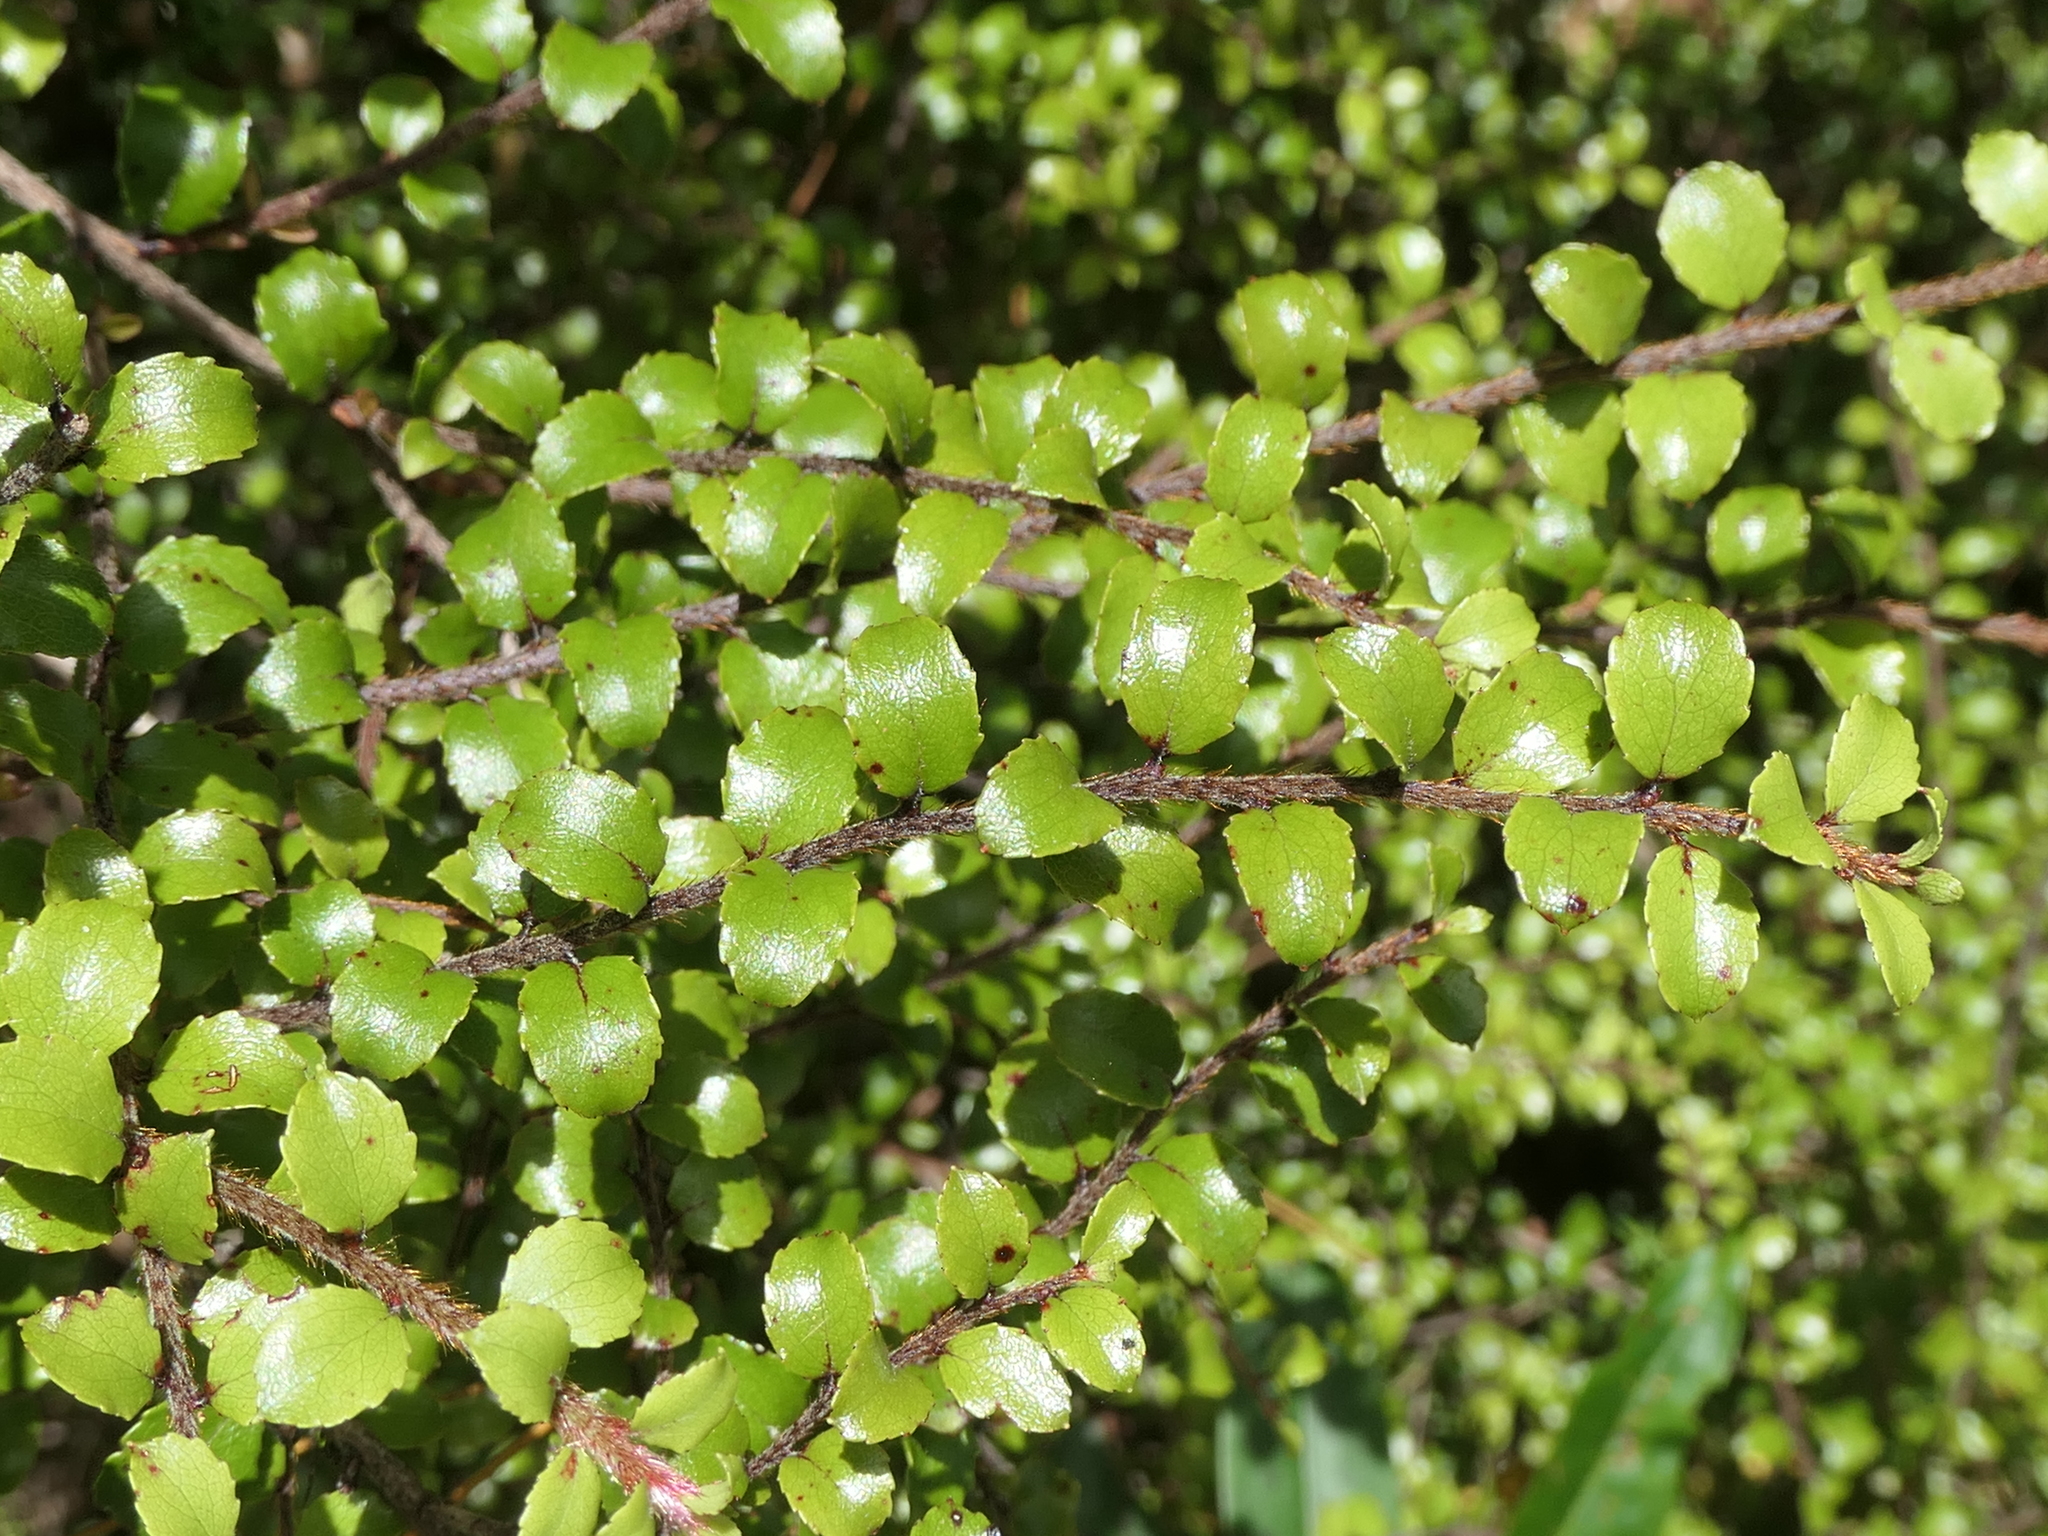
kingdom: Plantae
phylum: Tracheophyta
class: Magnoliopsida
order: Ericales
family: Ericaceae
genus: Gaultheria
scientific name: Gaultheria antipoda
